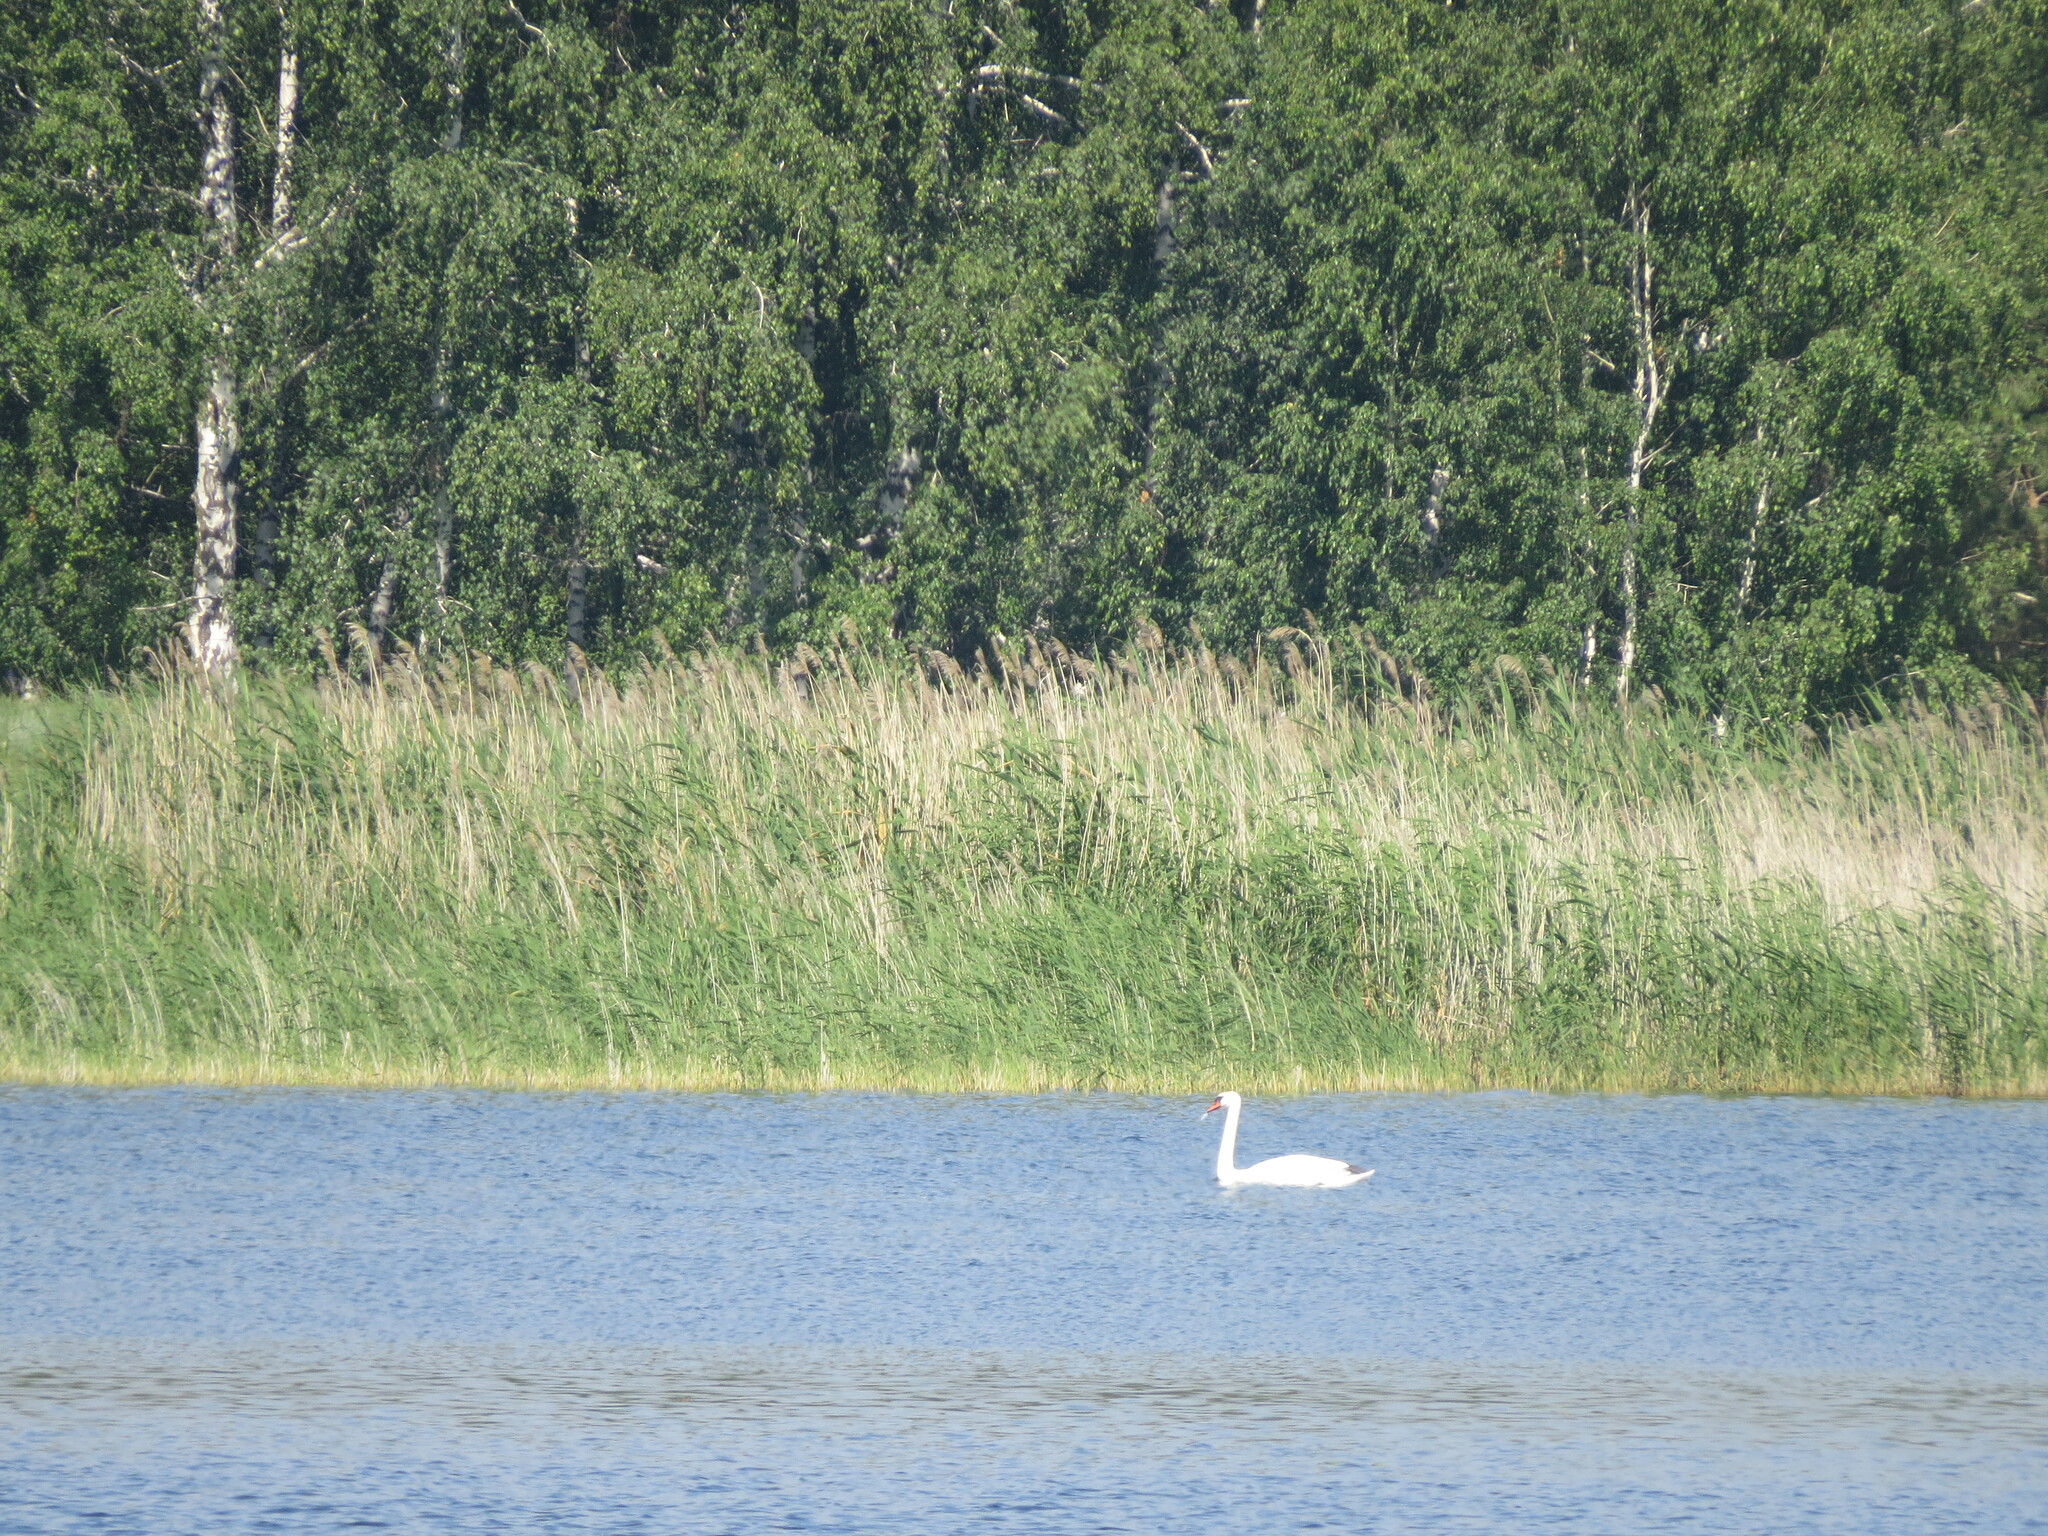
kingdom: Animalia
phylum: Chordata
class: Aves
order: Anseriformes
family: Anatidae
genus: Cygnus
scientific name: Cygnus olor
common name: Mute swan
